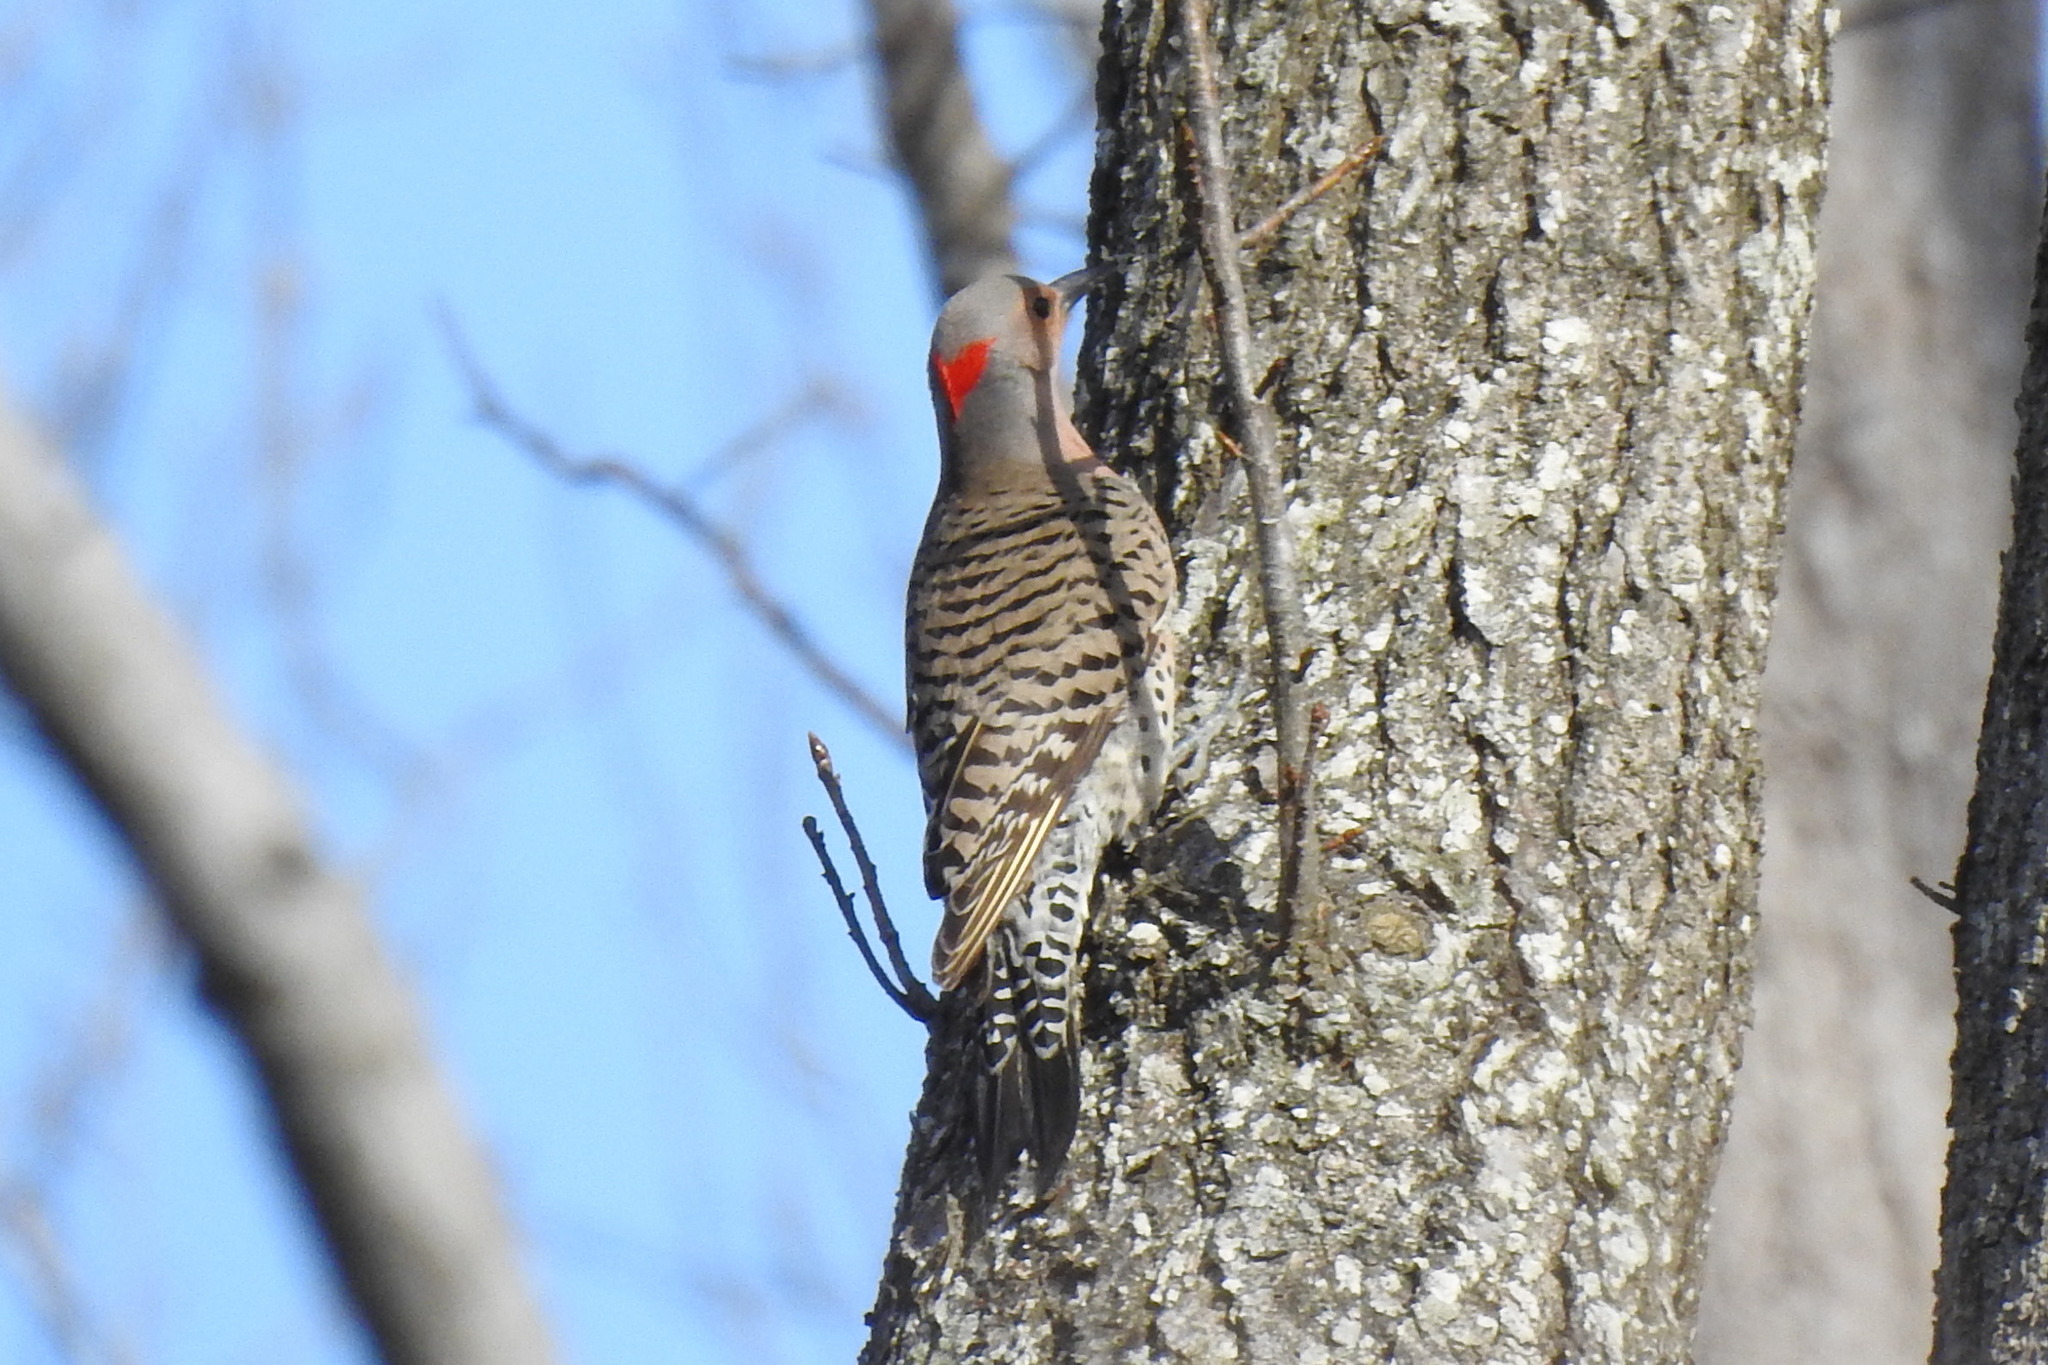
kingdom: Animalia
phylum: Chordata
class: Aves
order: Piciformes
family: Picidae
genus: Colaptes
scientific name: Colaptes auratus
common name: Northern flicker
